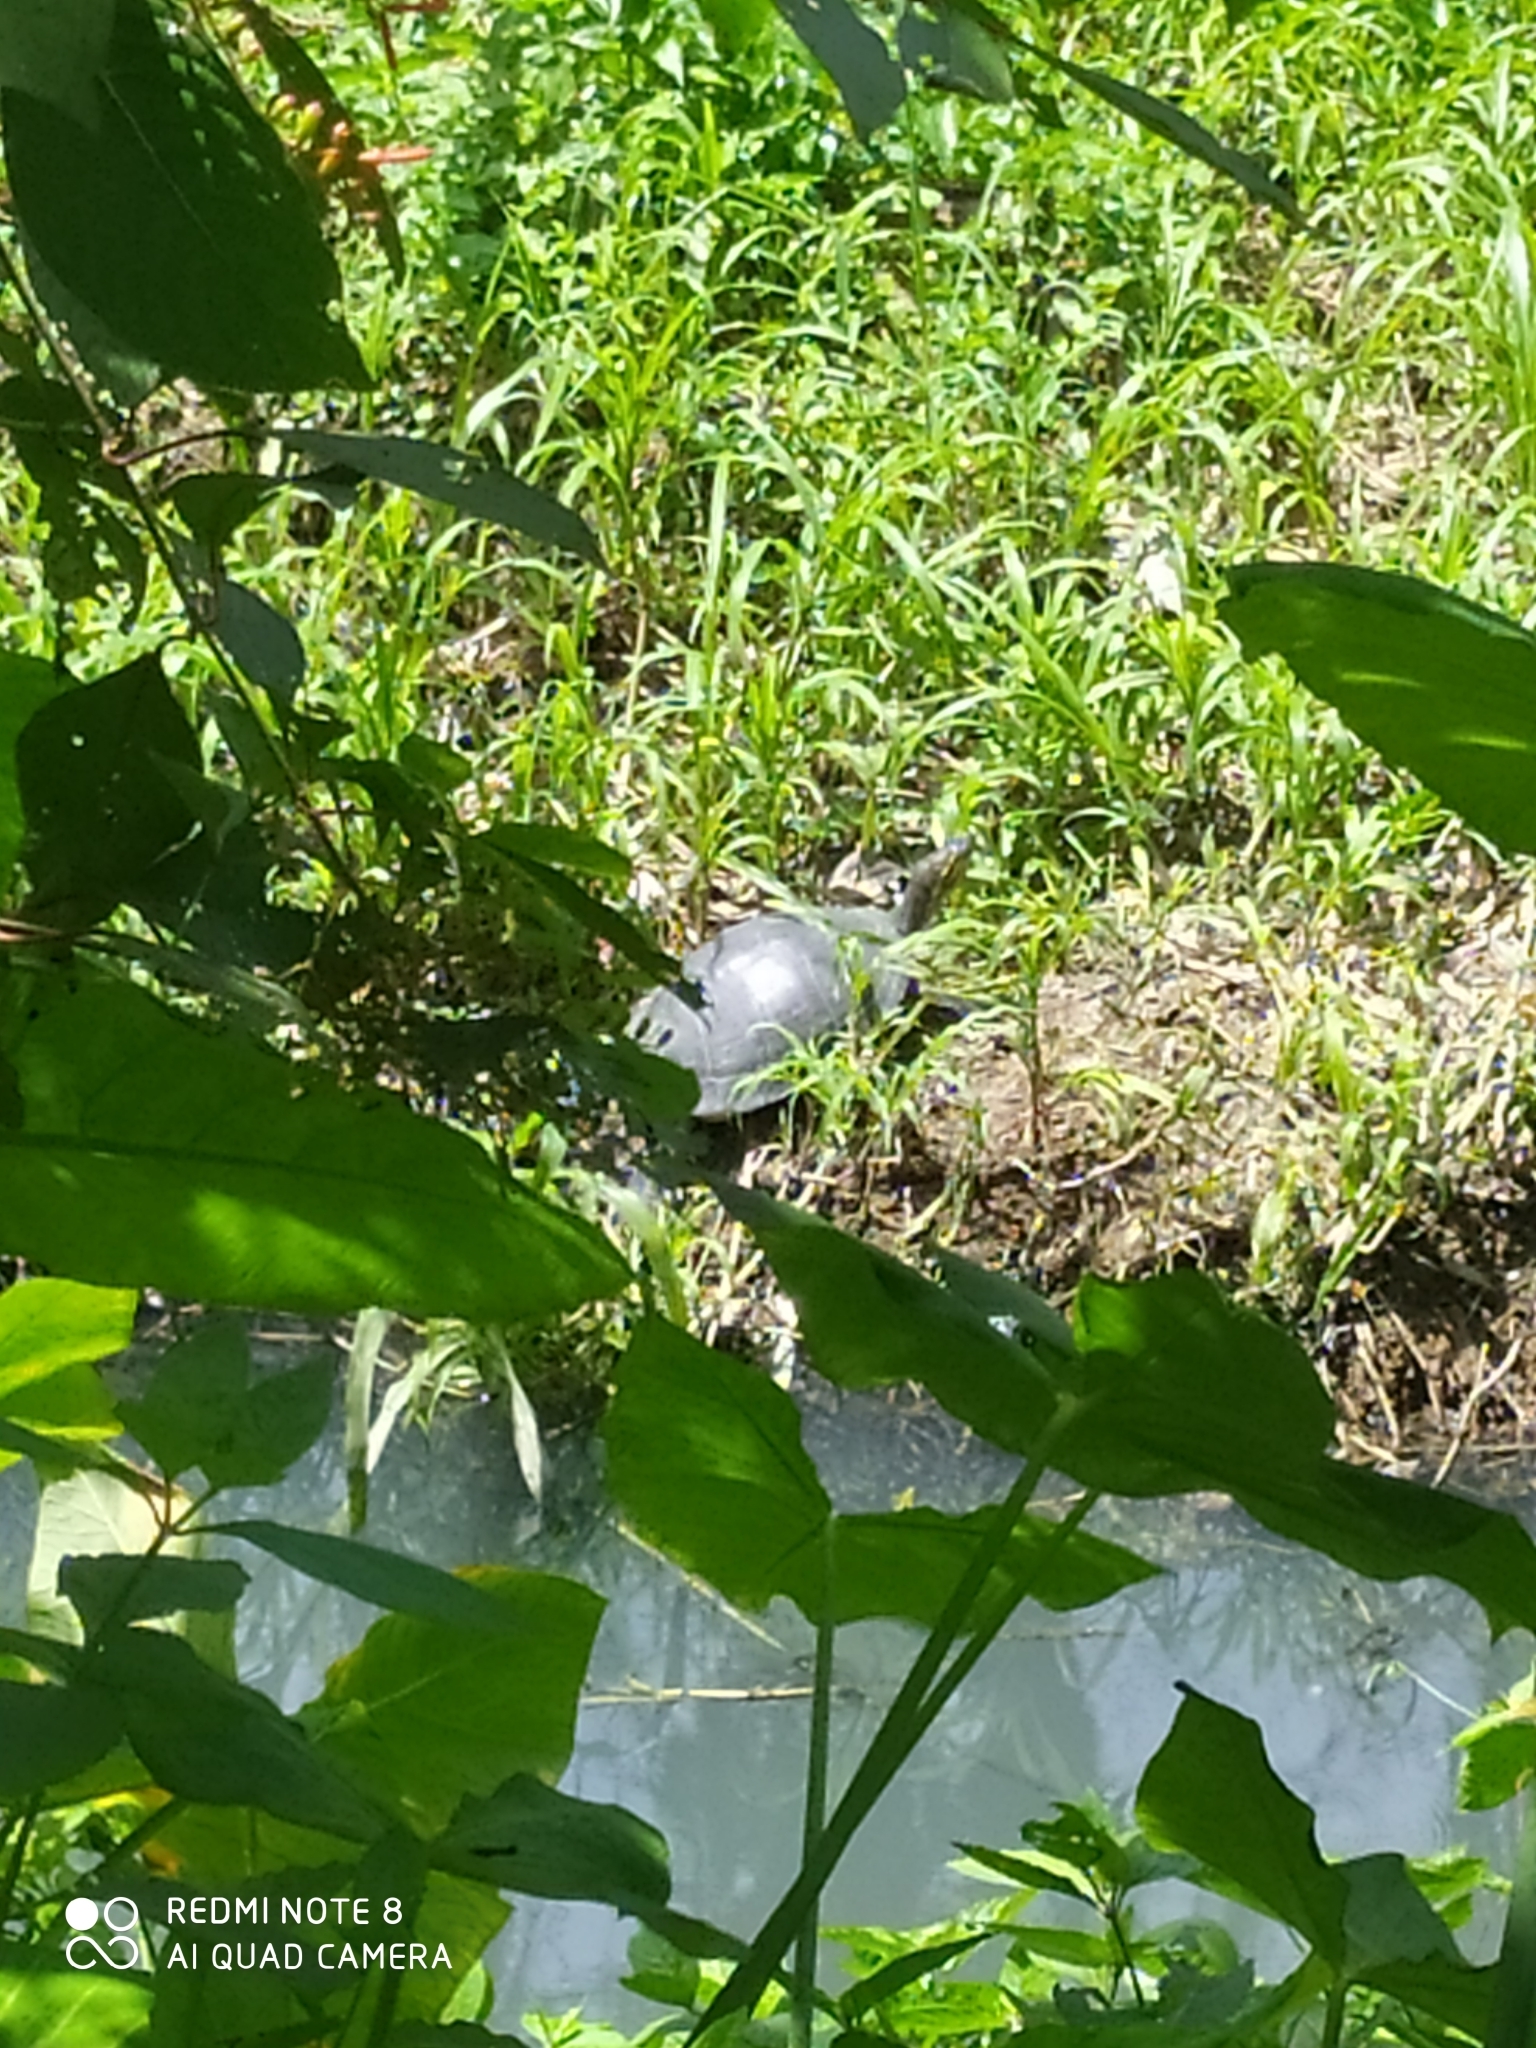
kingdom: Animalia
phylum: Chordata
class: Testudines
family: Emydidae
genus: Trachemys
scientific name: Trachemys venusta
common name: Mesoamerican slider
